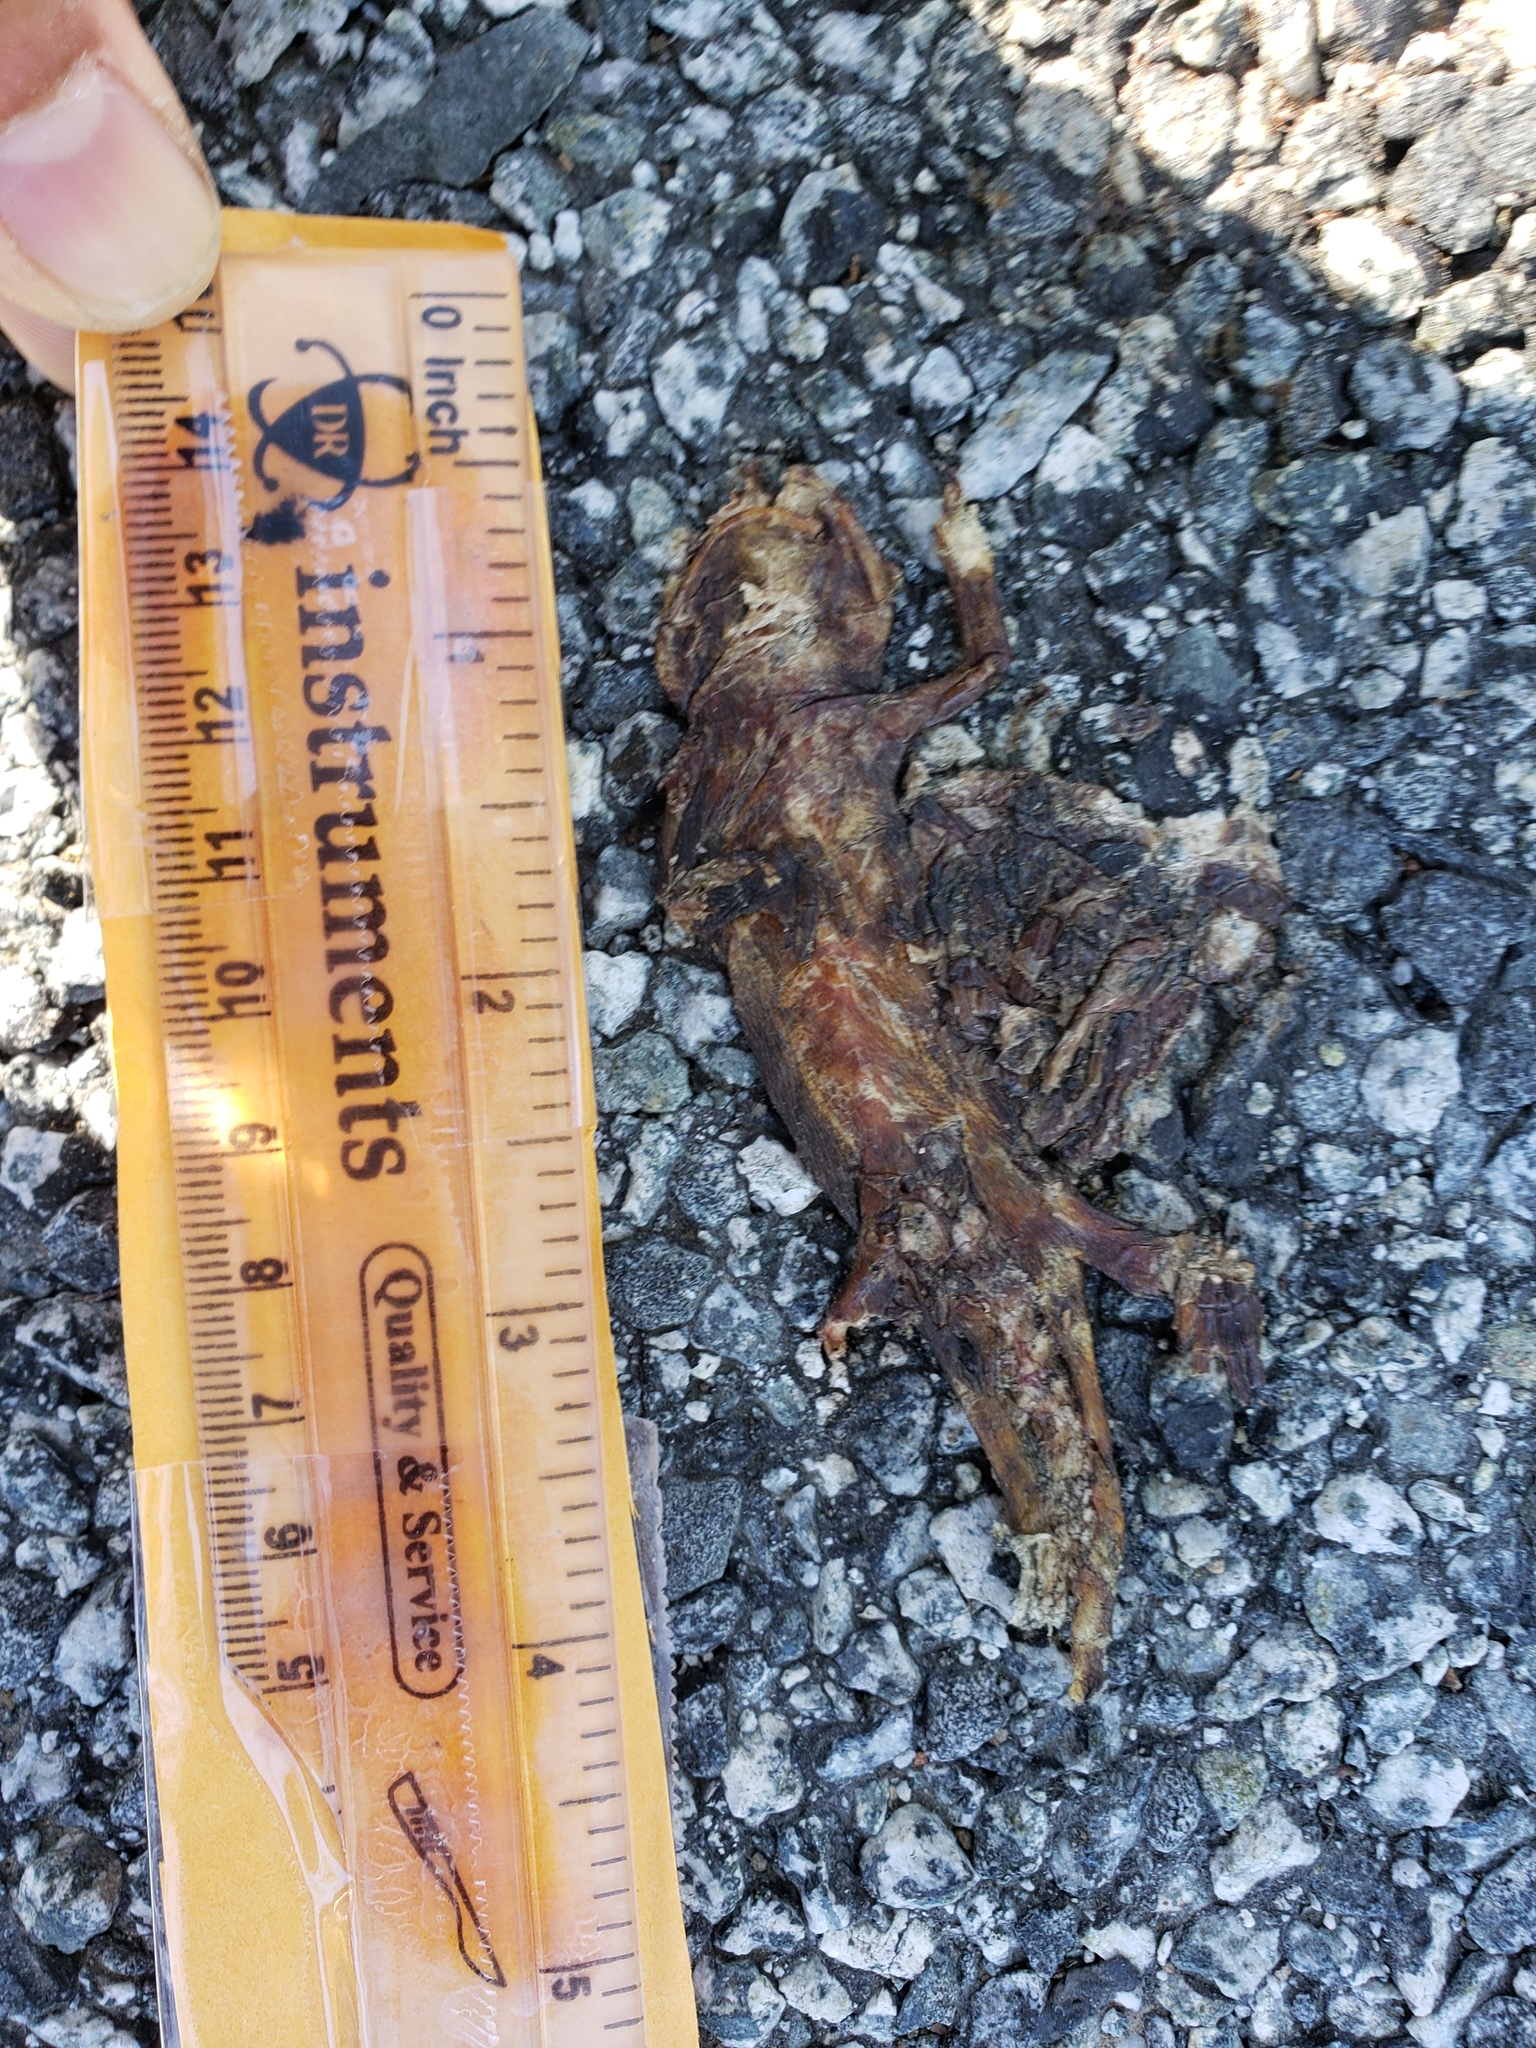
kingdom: Animalia
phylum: Chordata
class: Amphibia
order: Caudata
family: Salamandridae
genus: Taricha
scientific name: Taricha
